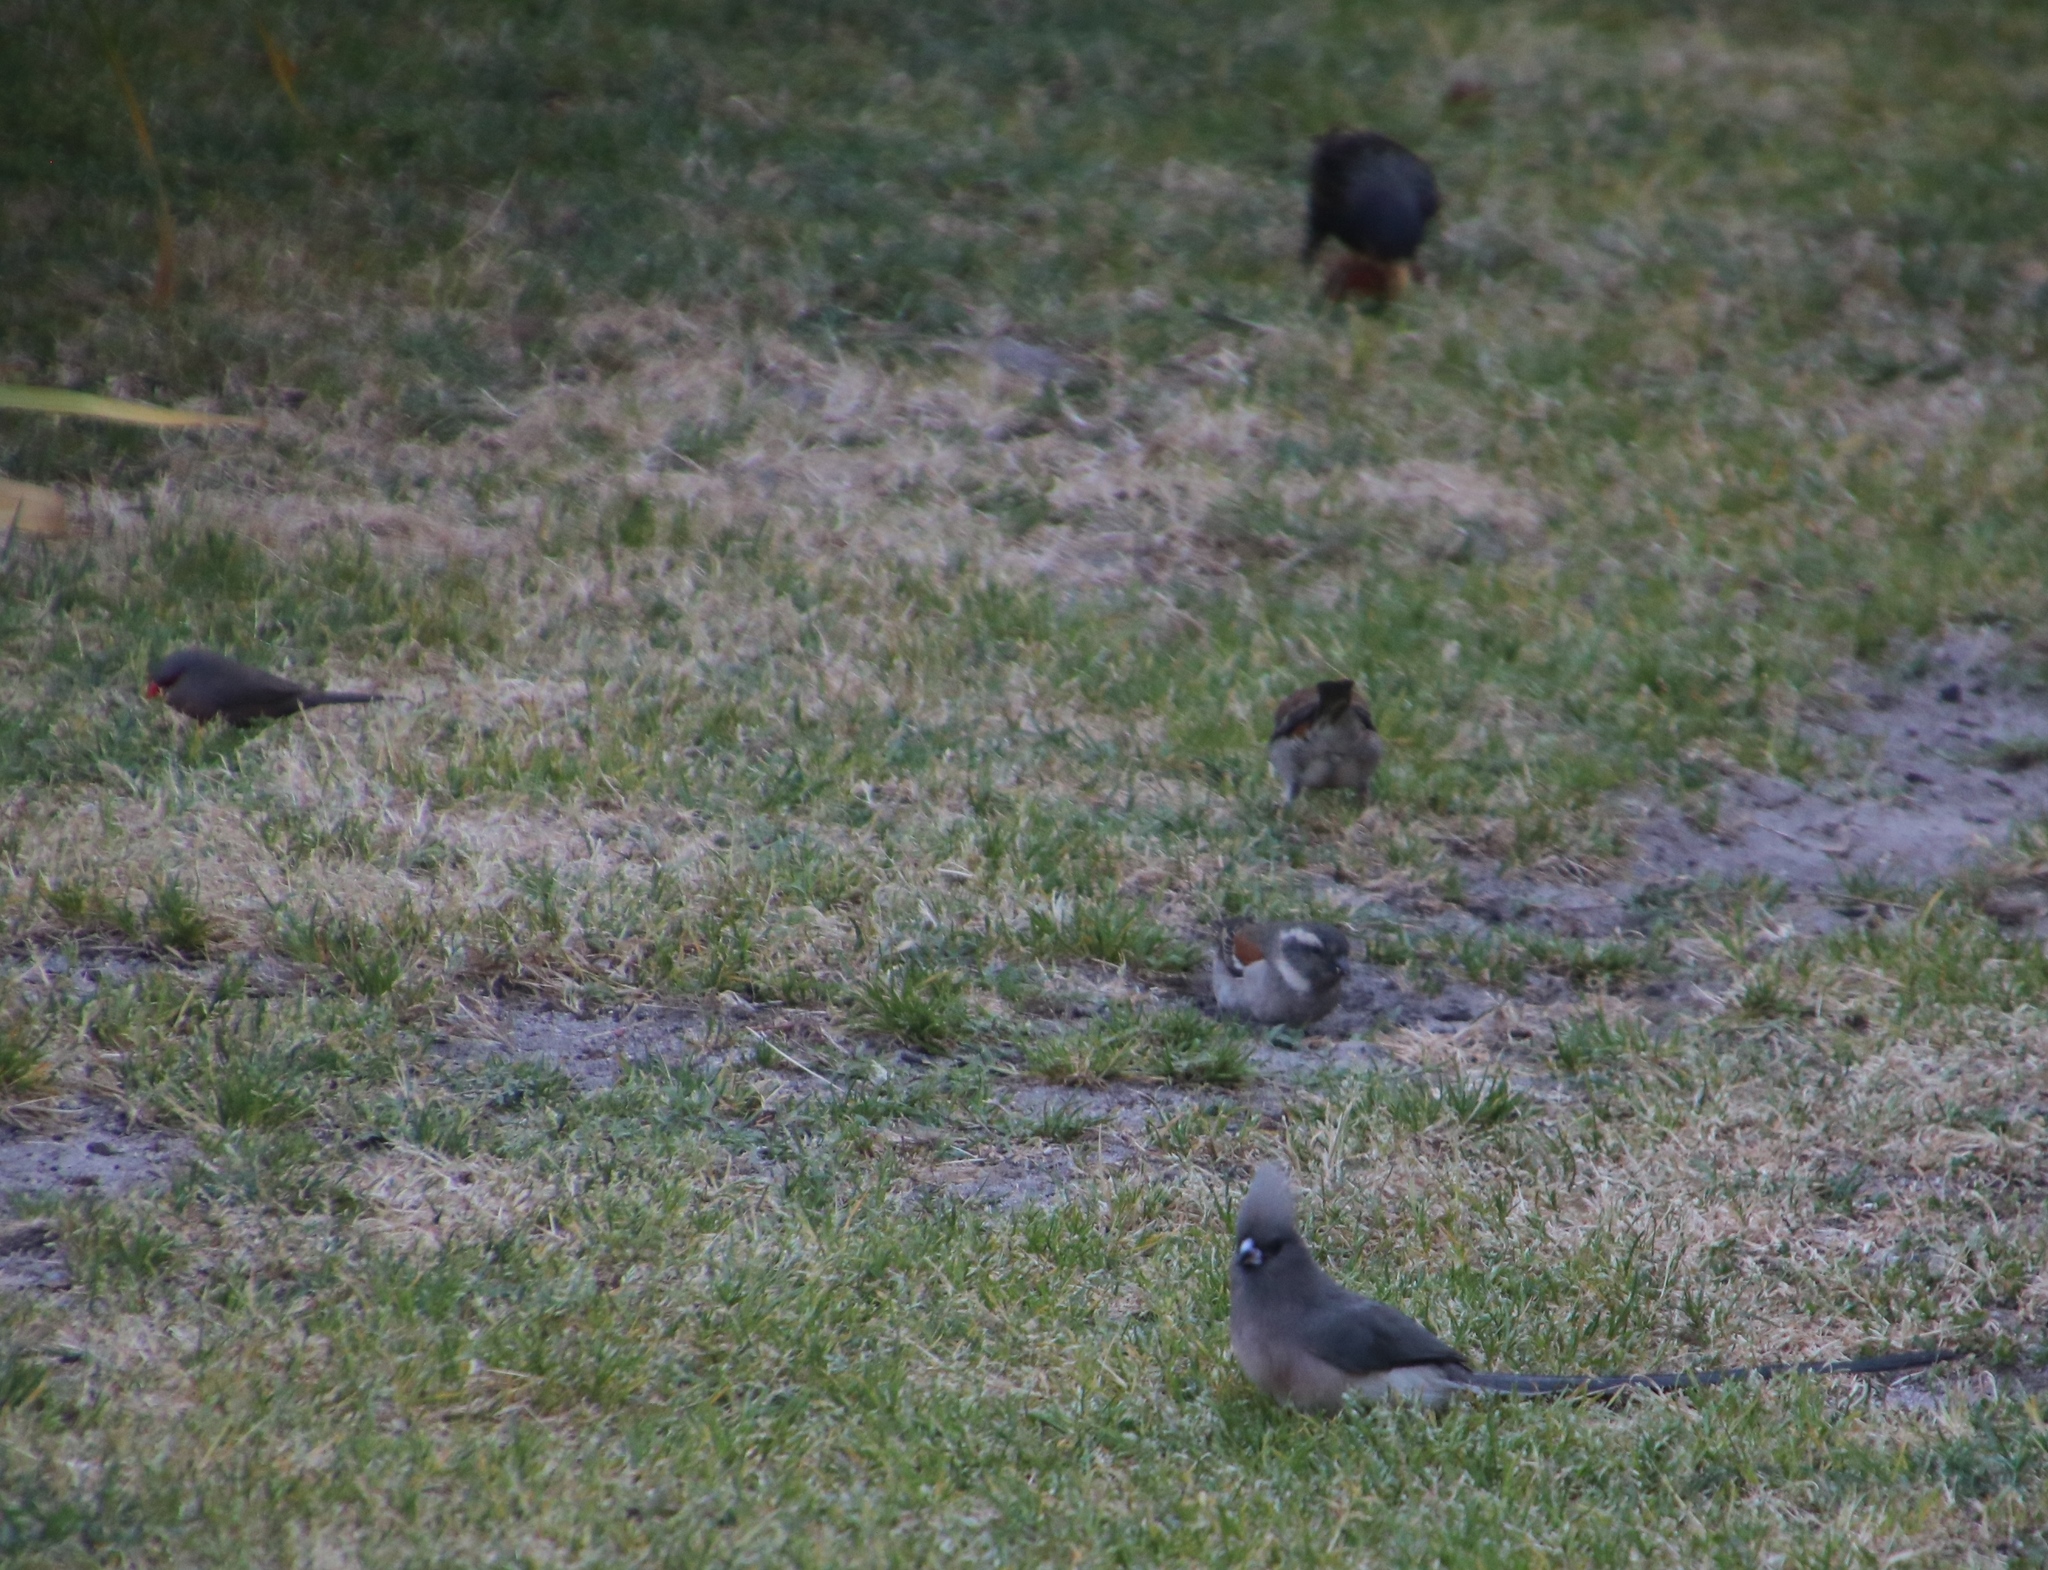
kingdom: Animalia
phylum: Chordata
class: Aves
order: Coliiformes
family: Coliidae
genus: Colius
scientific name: Colius colius
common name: White-backed mousebird
